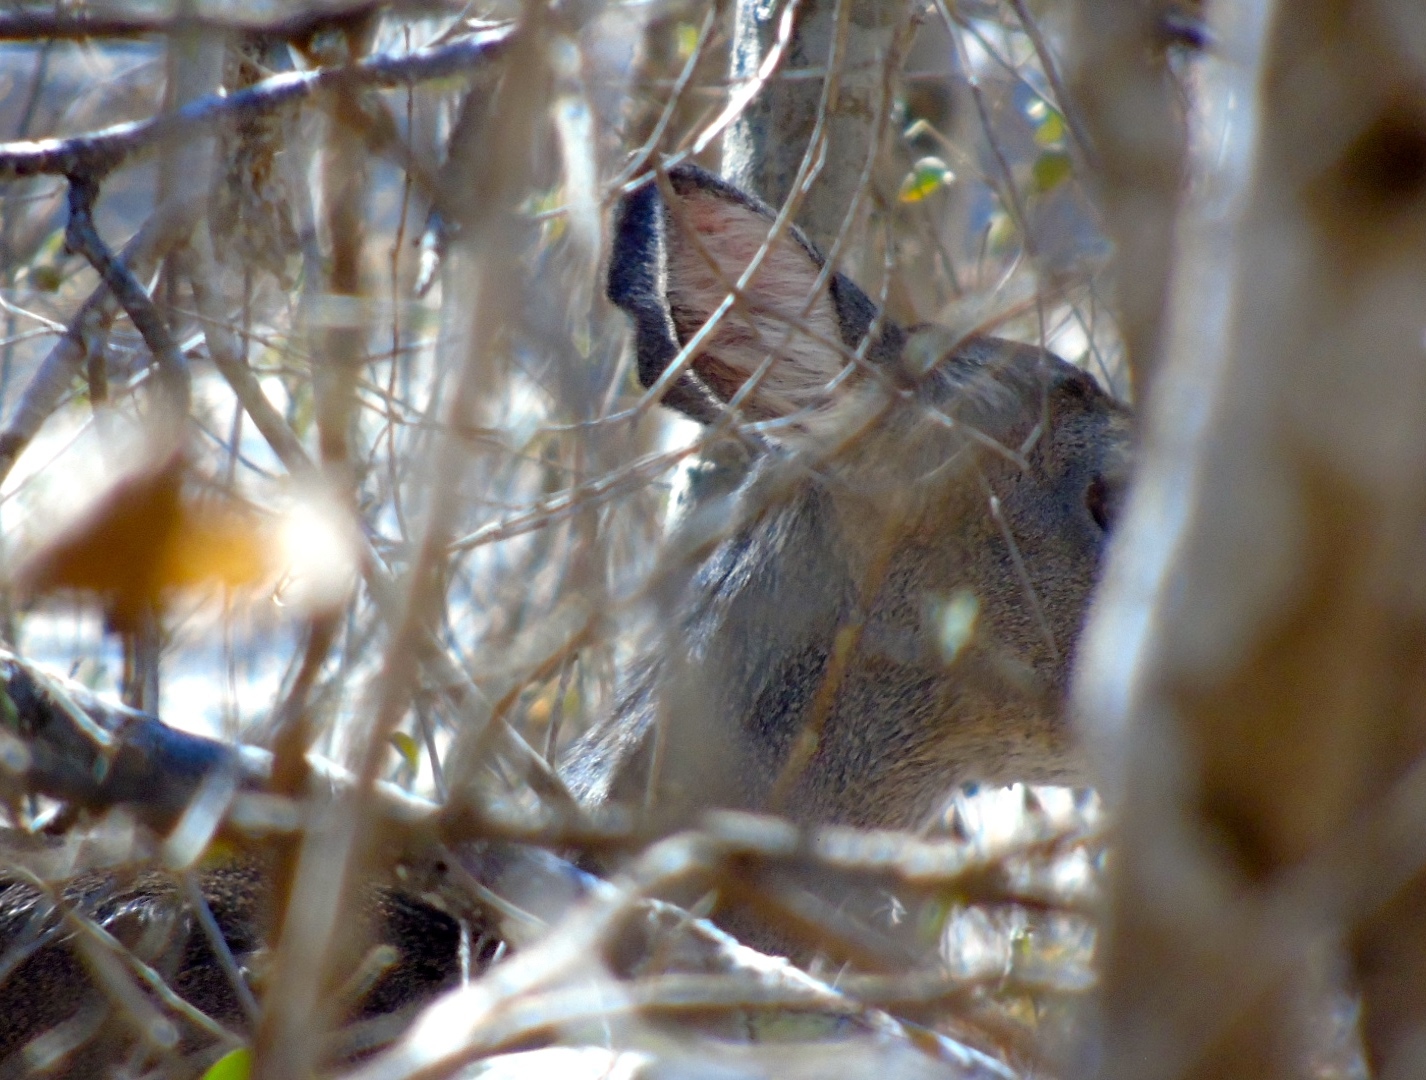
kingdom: Animalia
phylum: Chordata
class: Mammalia
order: Artiodactyla
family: Cervidae
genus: Odocoileus
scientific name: Odocoileus virginianus
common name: White-tailed deer
